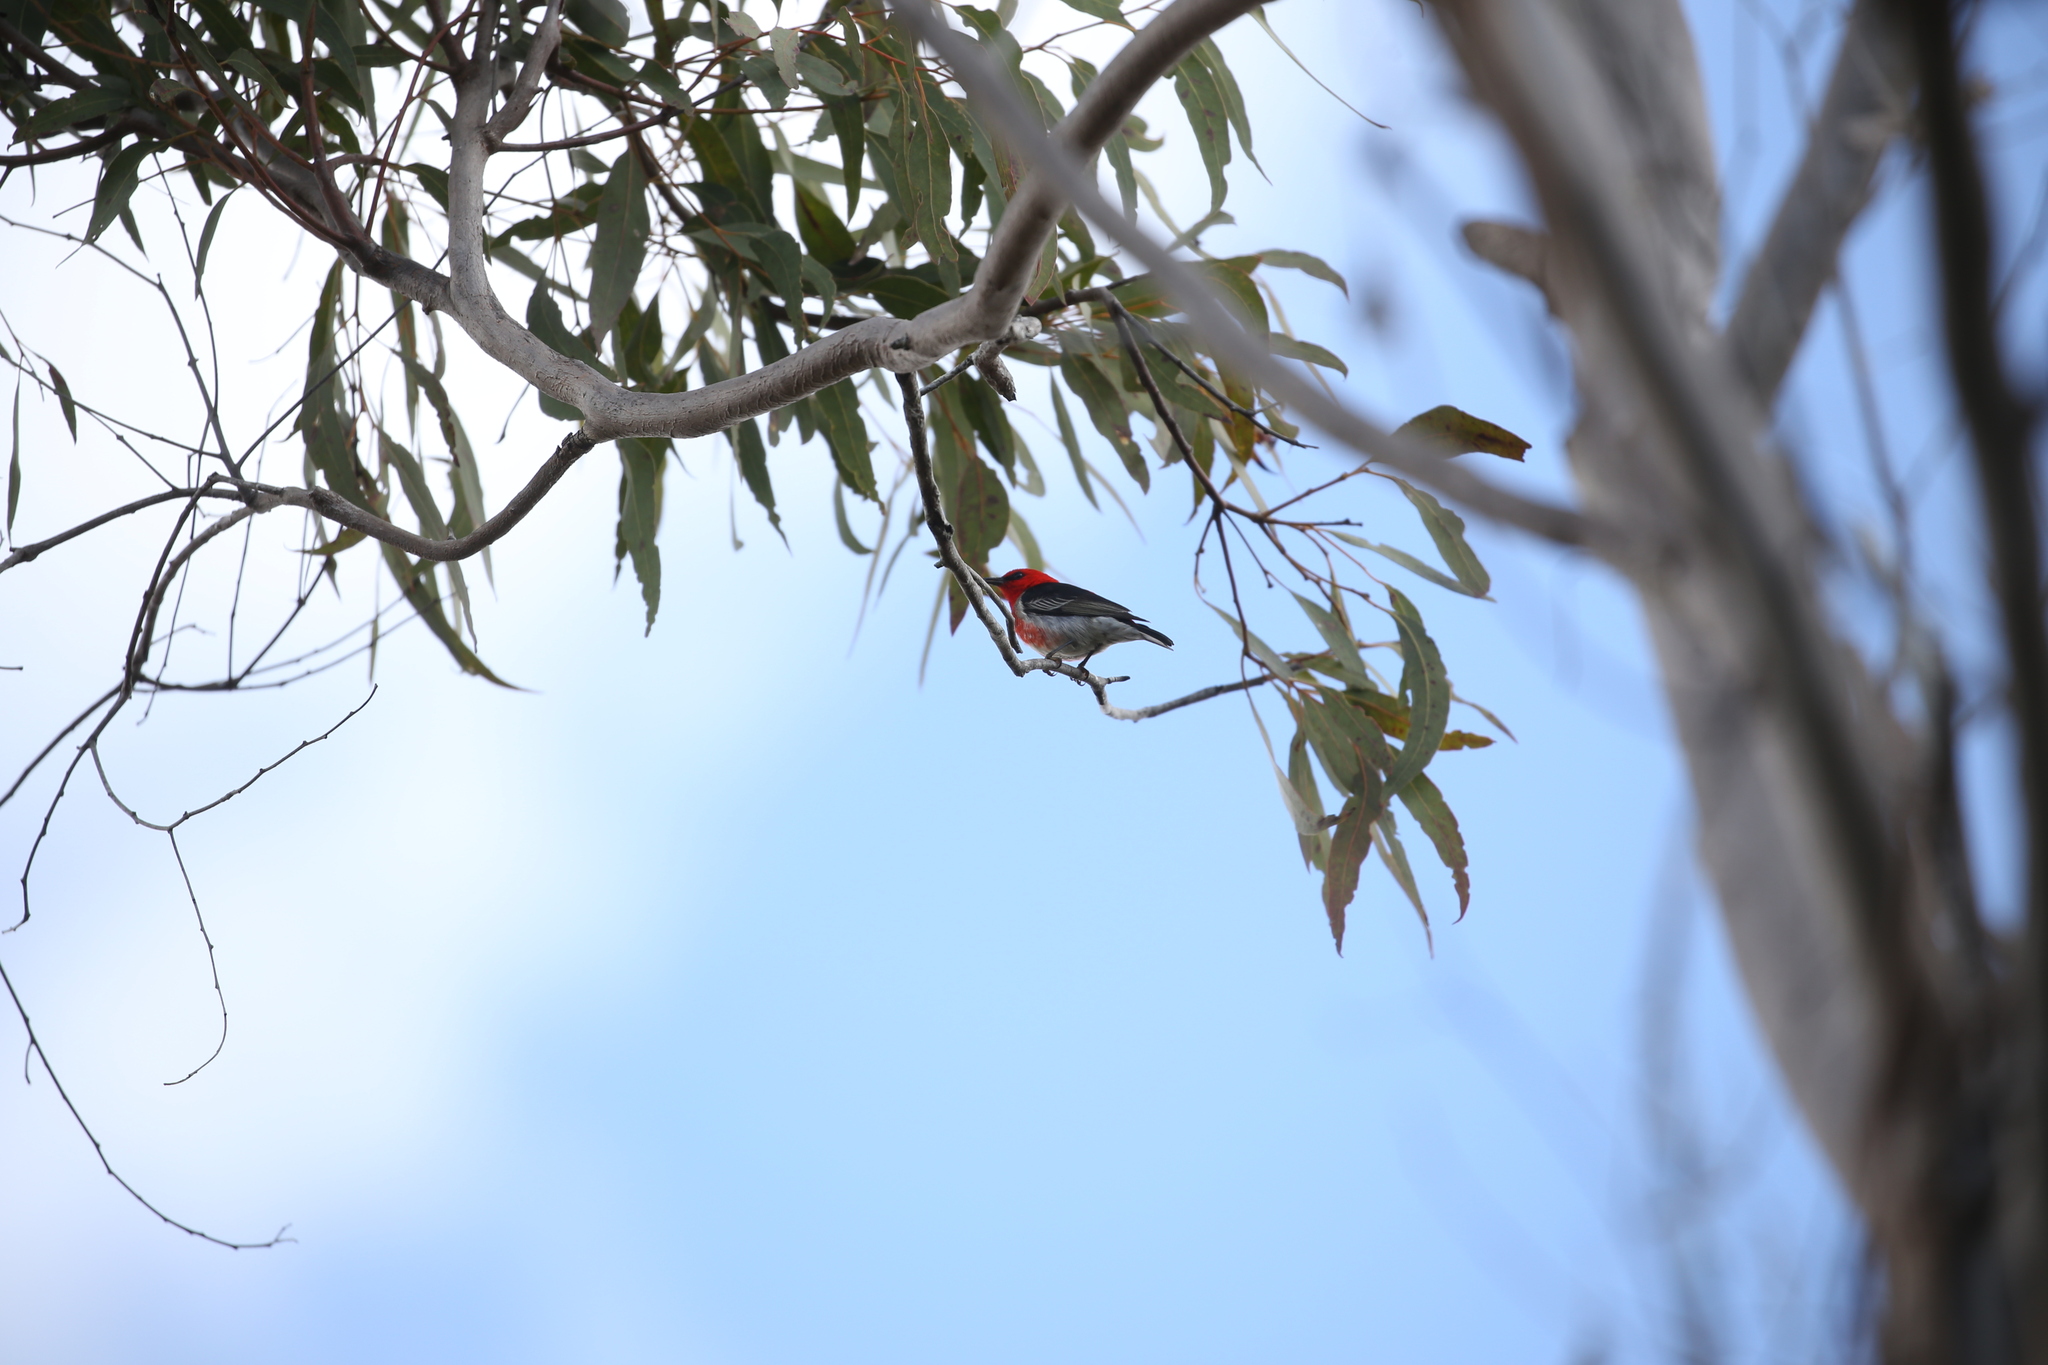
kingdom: Animalia
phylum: Chordata
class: Aves
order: Passeriformes
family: Meliphagidae
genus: Myzomela
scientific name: Myzomela sanguinolenta
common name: Scarlet myzomela
